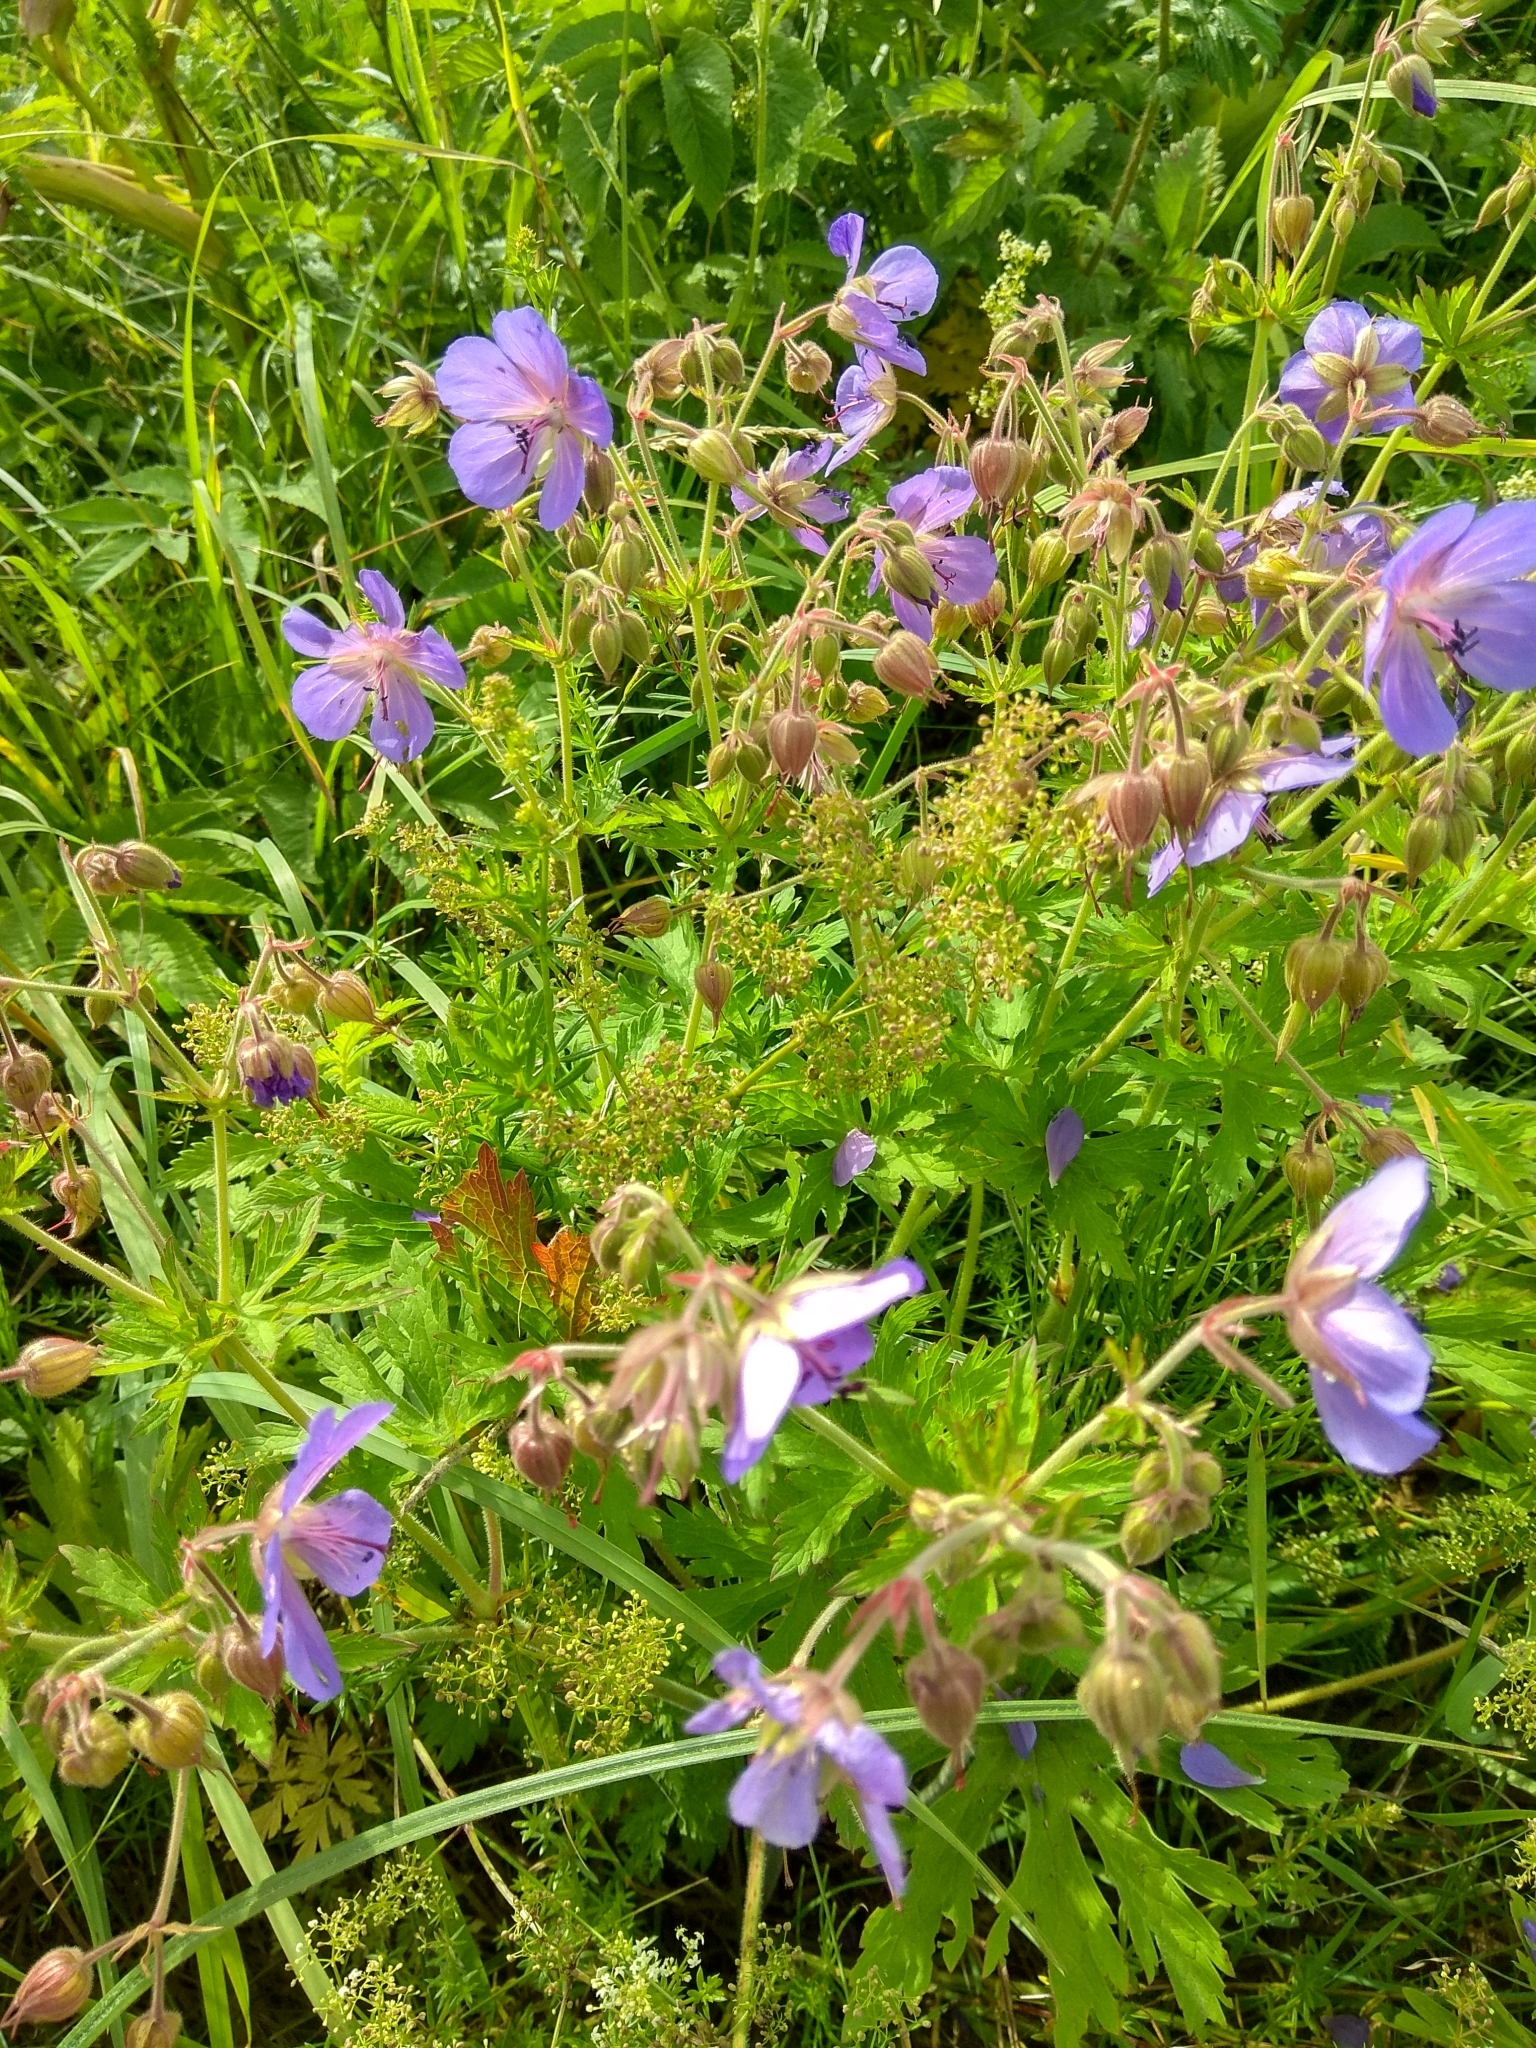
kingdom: Plantae
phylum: Tracheophyta
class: Magnoliopsida
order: Geraniales
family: Geraniaceae
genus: Geranium
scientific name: Geranium pratense
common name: Meadow crane's-bill
